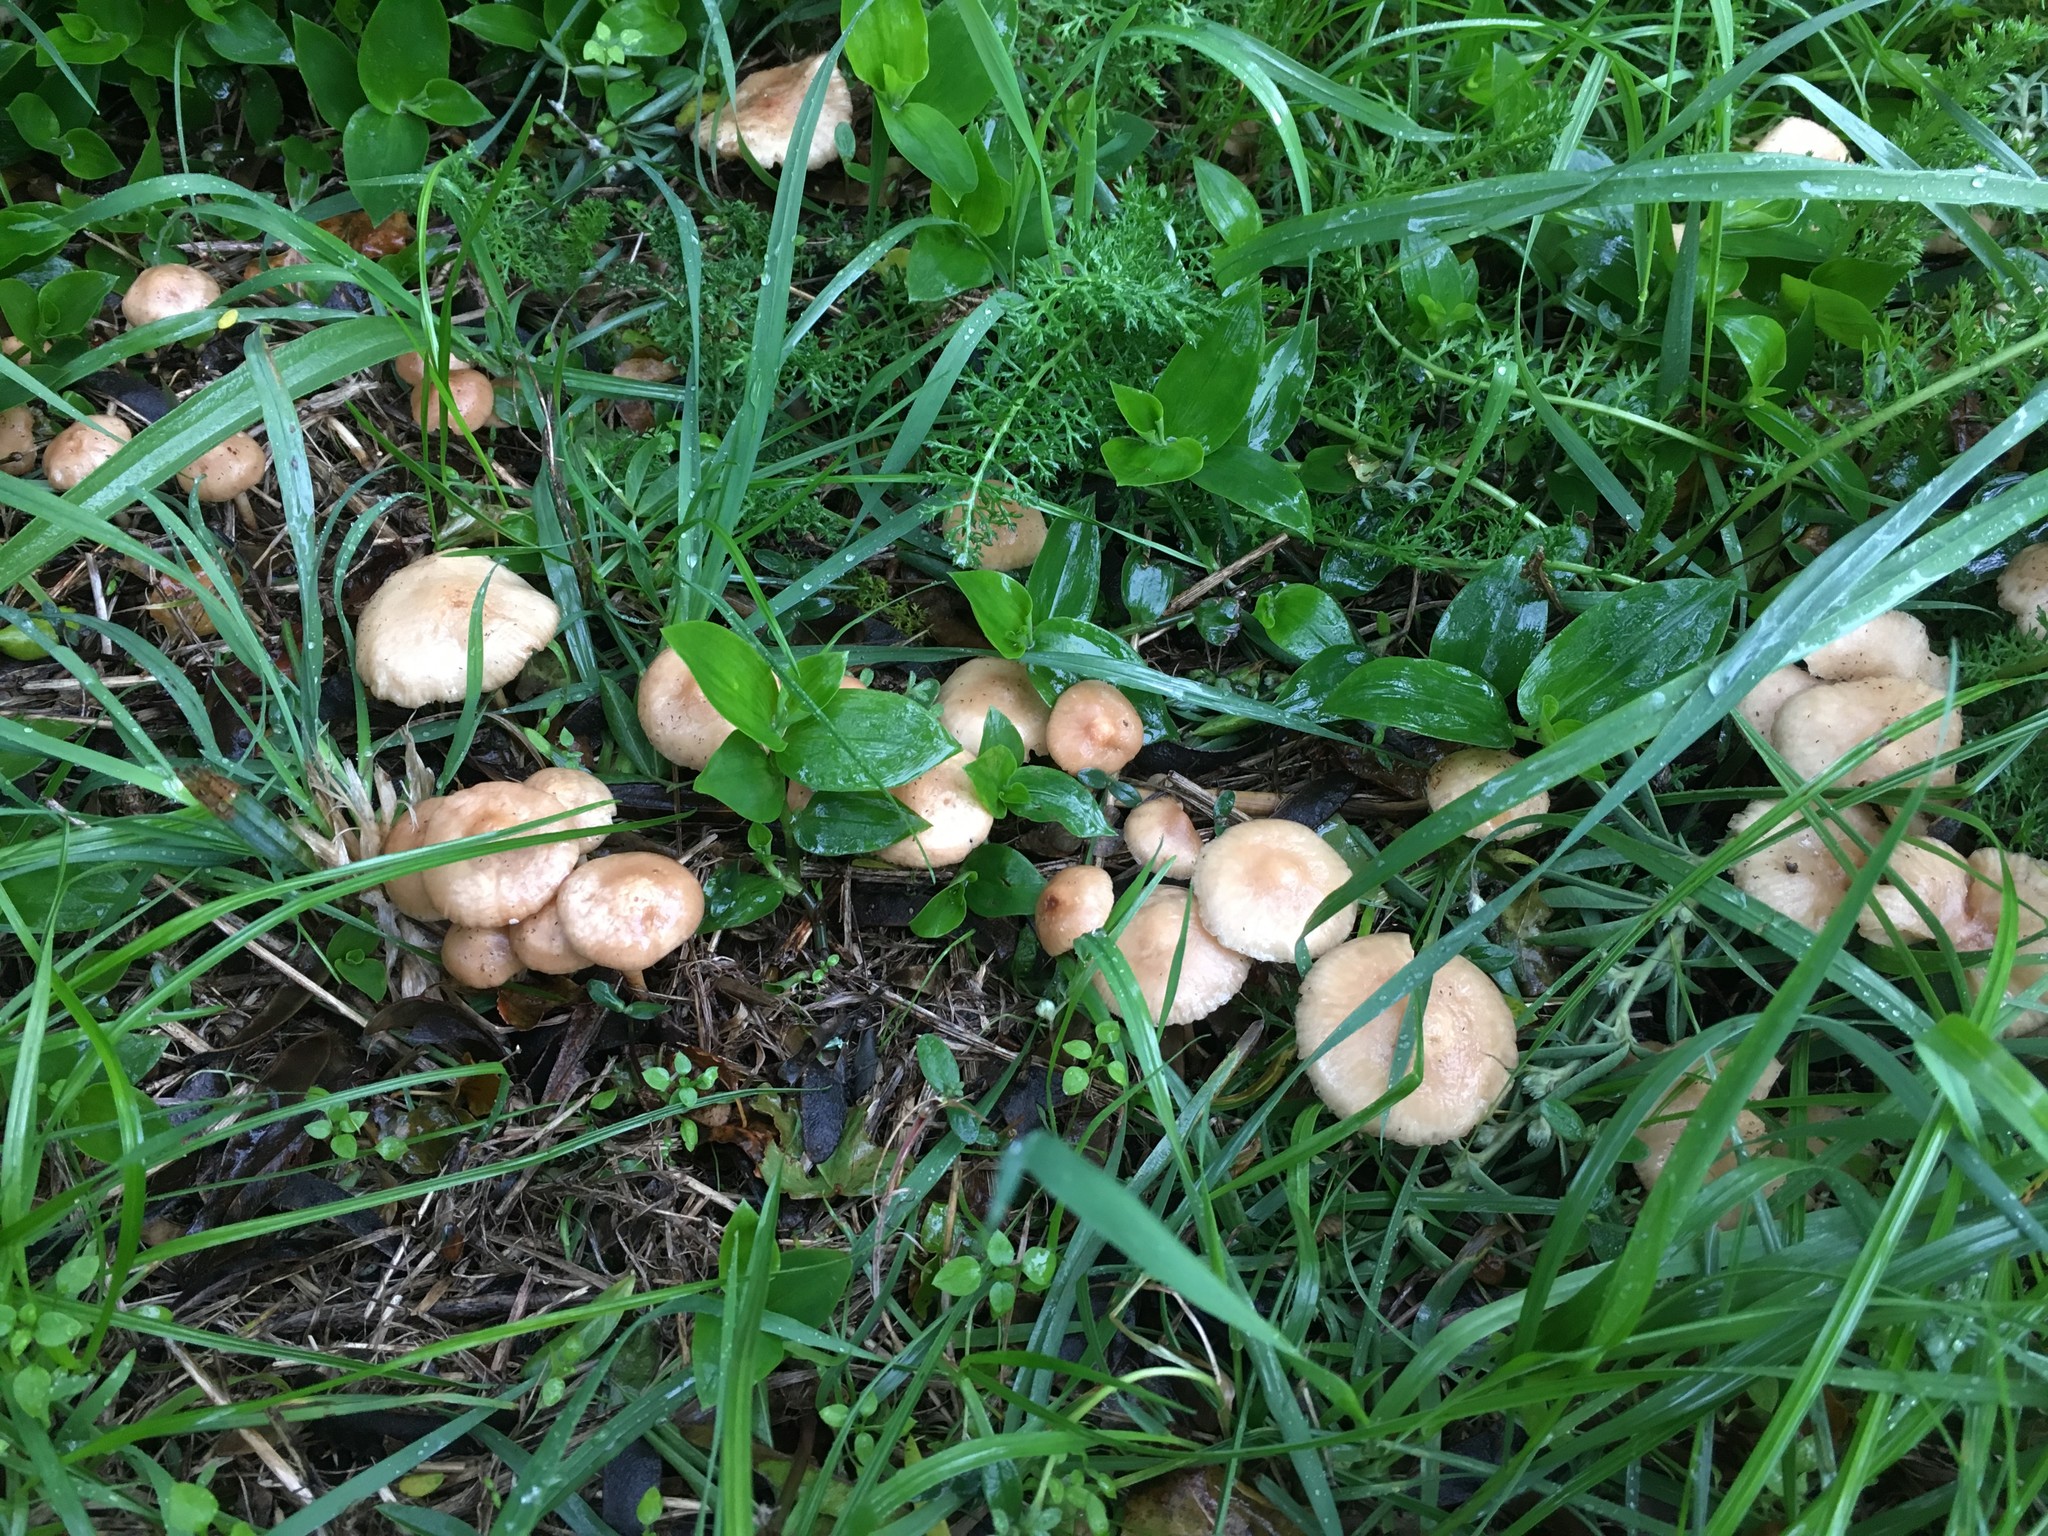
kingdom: Fungi
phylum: Basidiomycota
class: Agaricomycetes
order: Agaricales
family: Marasmiaceae
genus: Marasmius
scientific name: Marasmius oreades
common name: Fairy ring champignon
